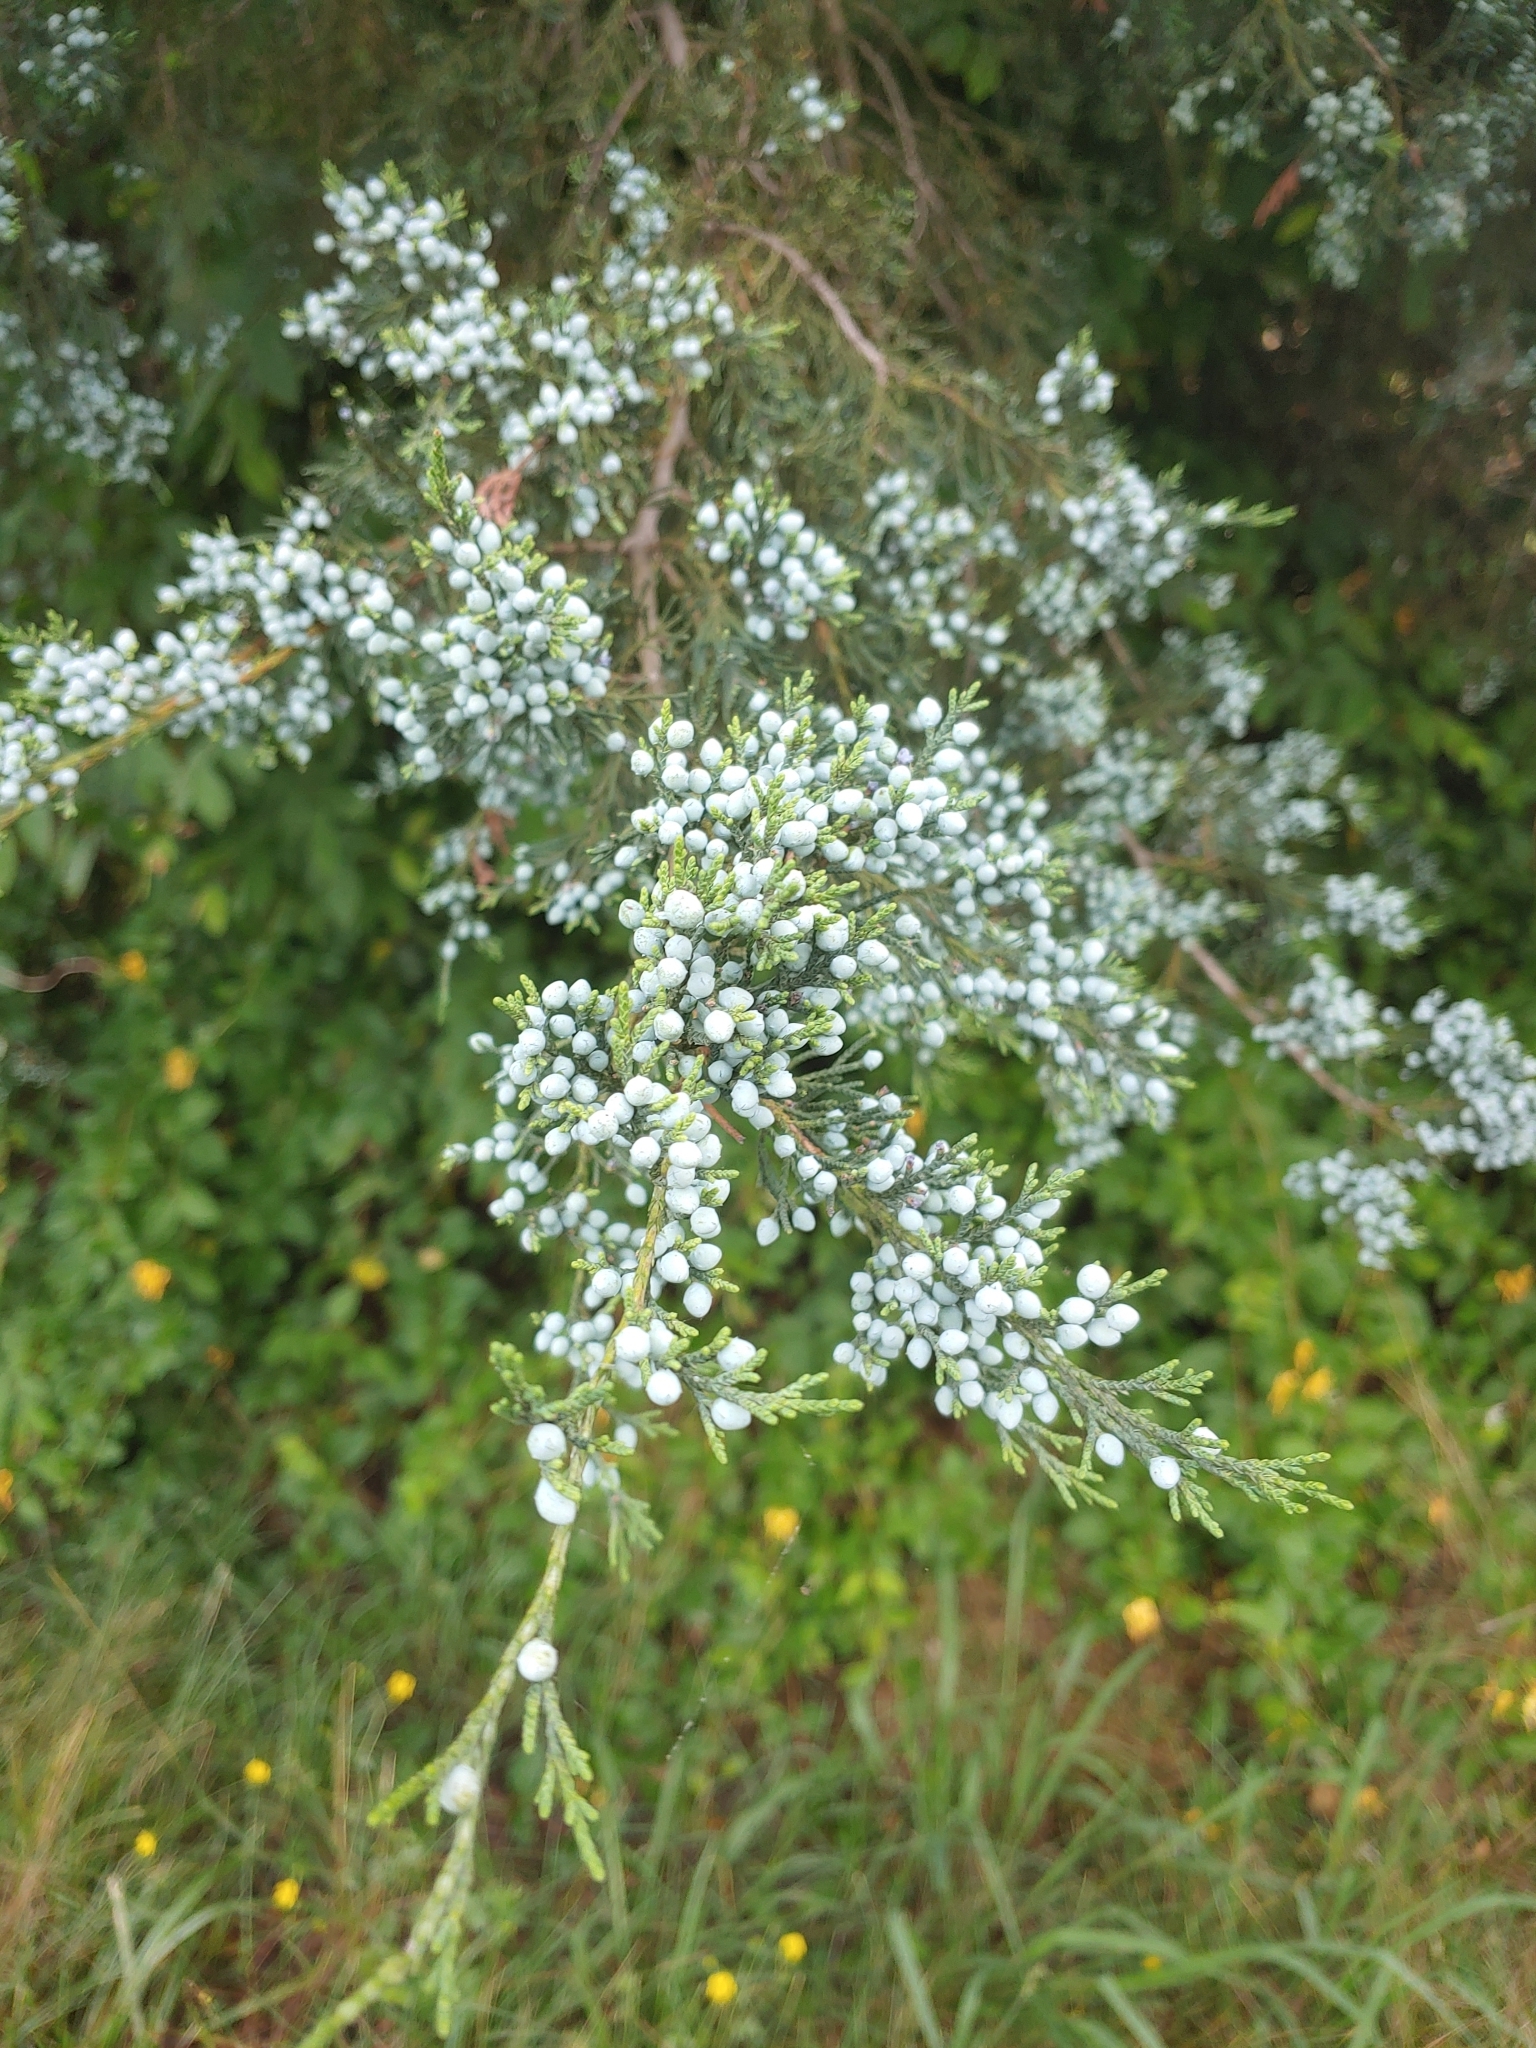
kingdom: Plantae
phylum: Tracheophyta
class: Pinopsida
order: Pinales
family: Cupressaceae
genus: Juniperus
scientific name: Juniperus virginiana
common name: Red juniper
